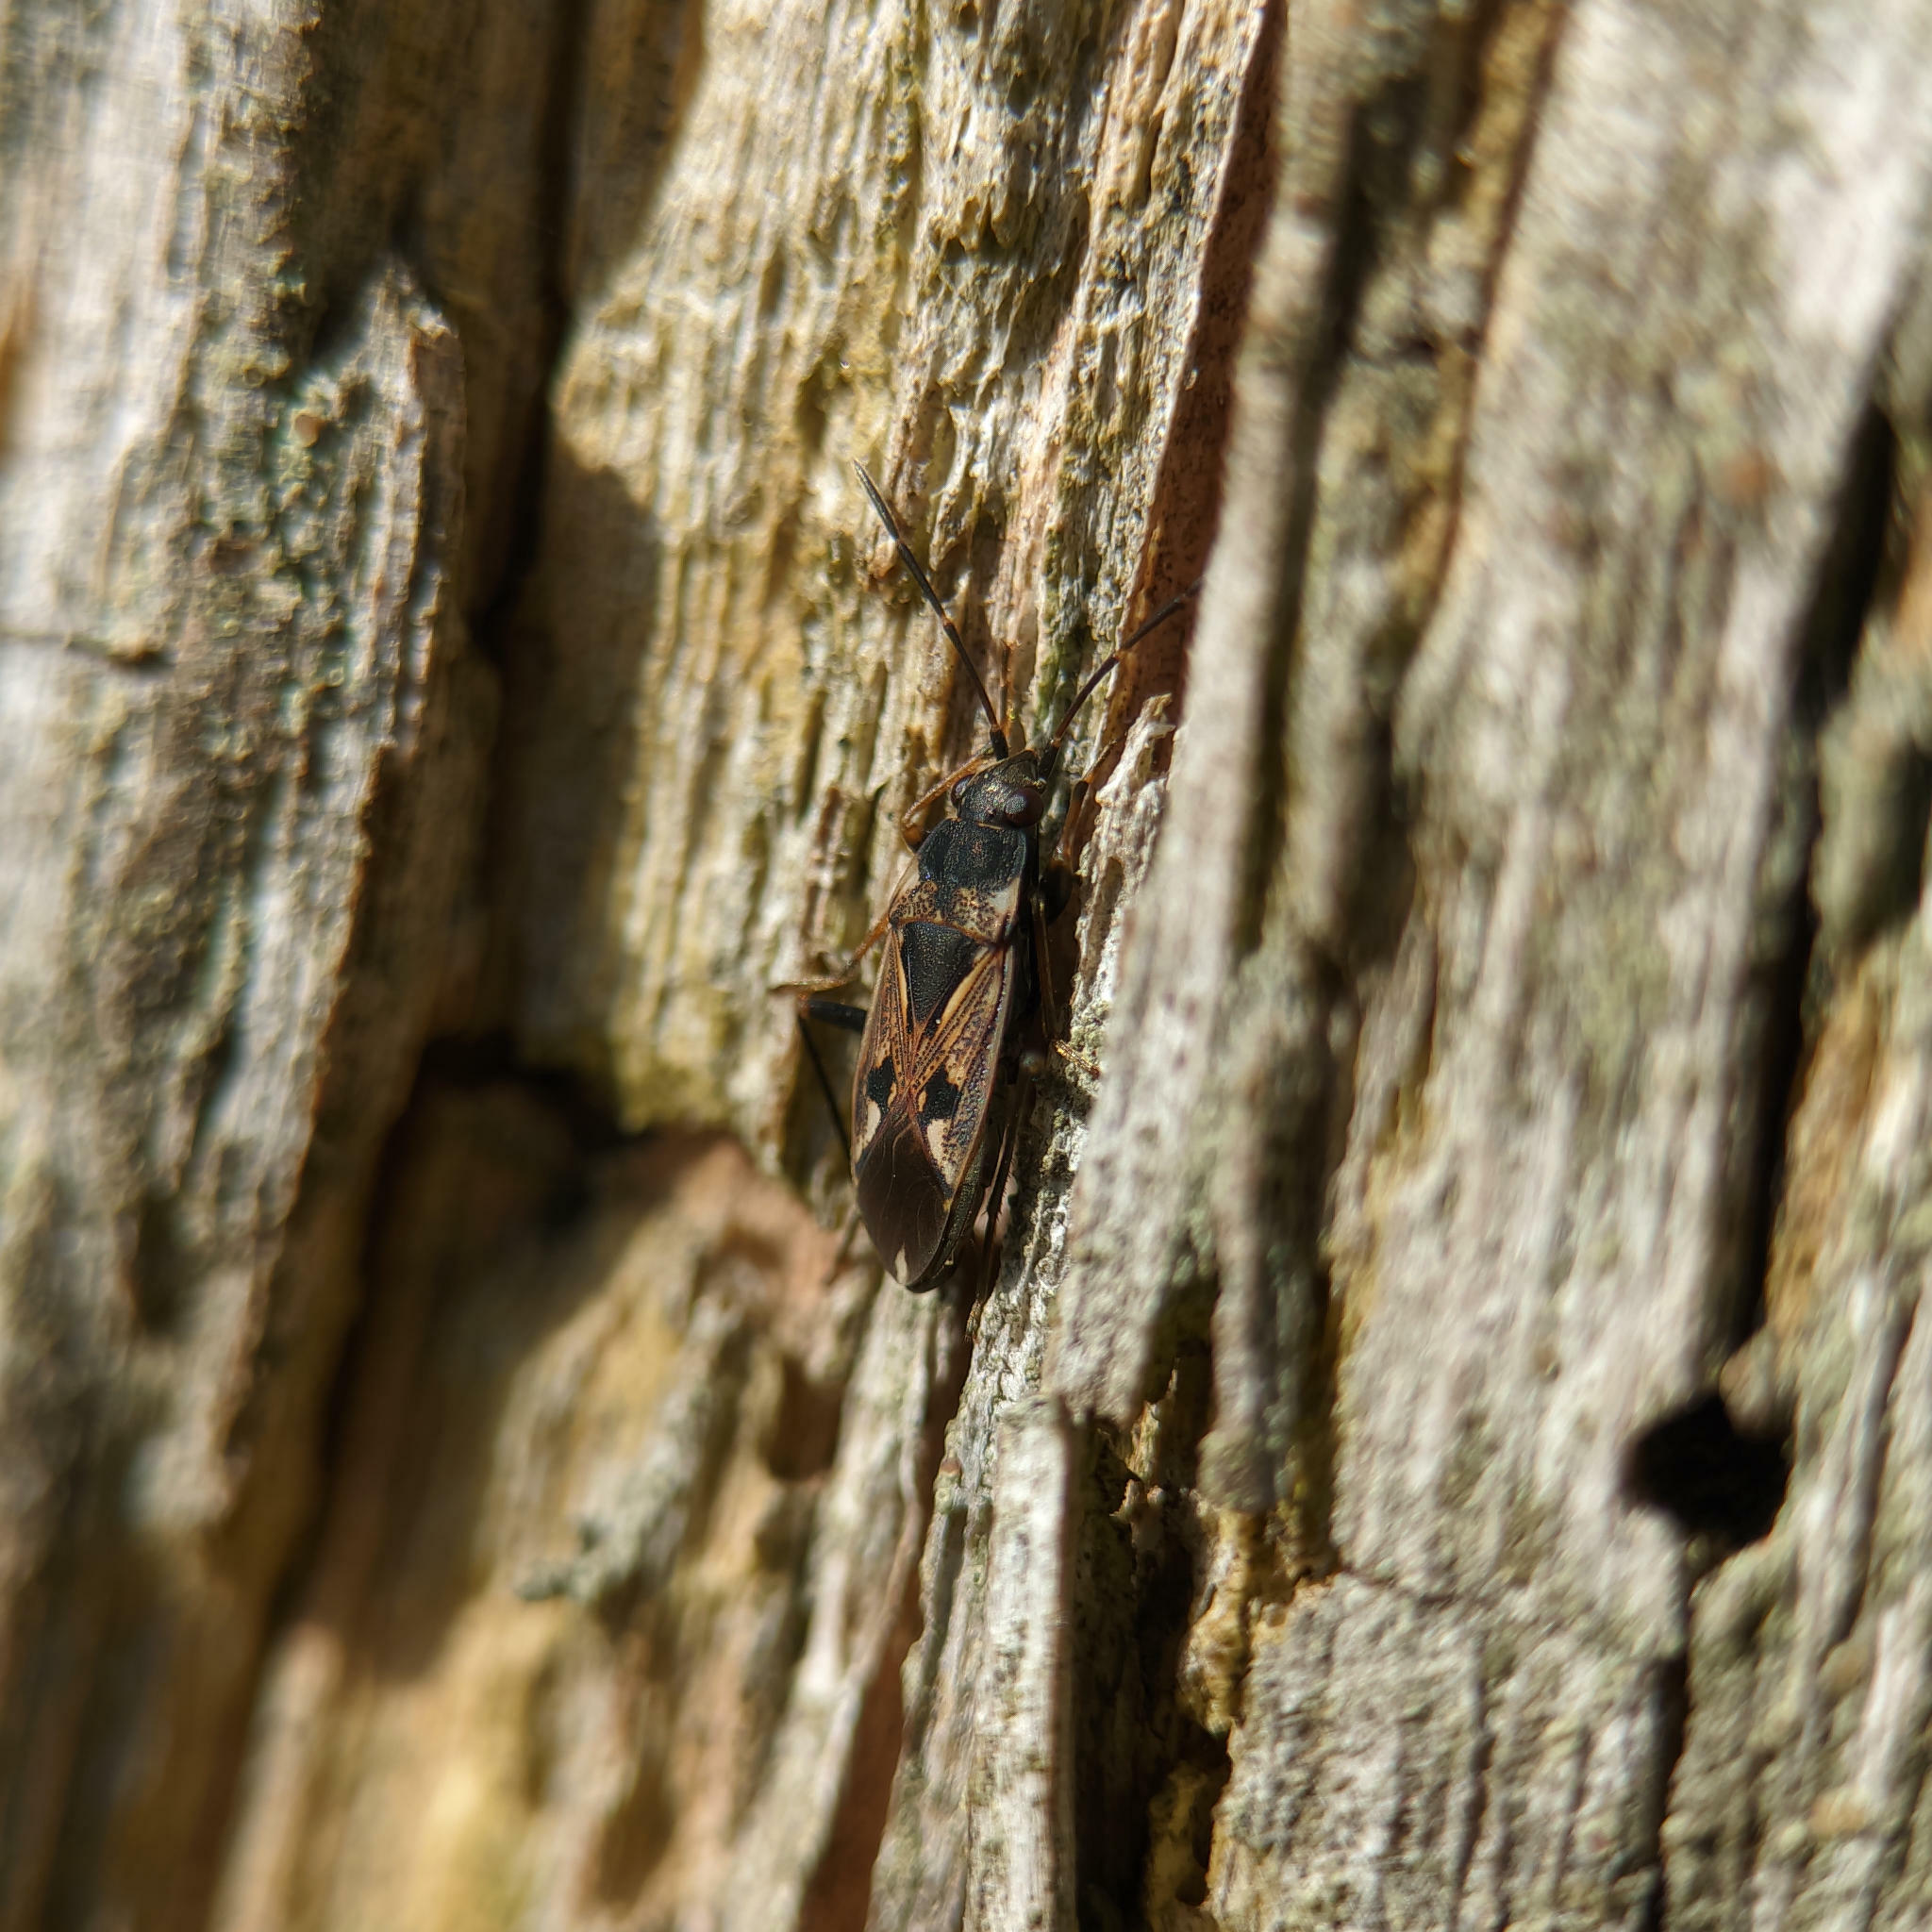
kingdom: Animalia
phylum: Arthropoda
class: Insecta
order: Hemiptera
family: Rhyparochromidae
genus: Rhyparochromus
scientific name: Rhyparochromus vulgaris
